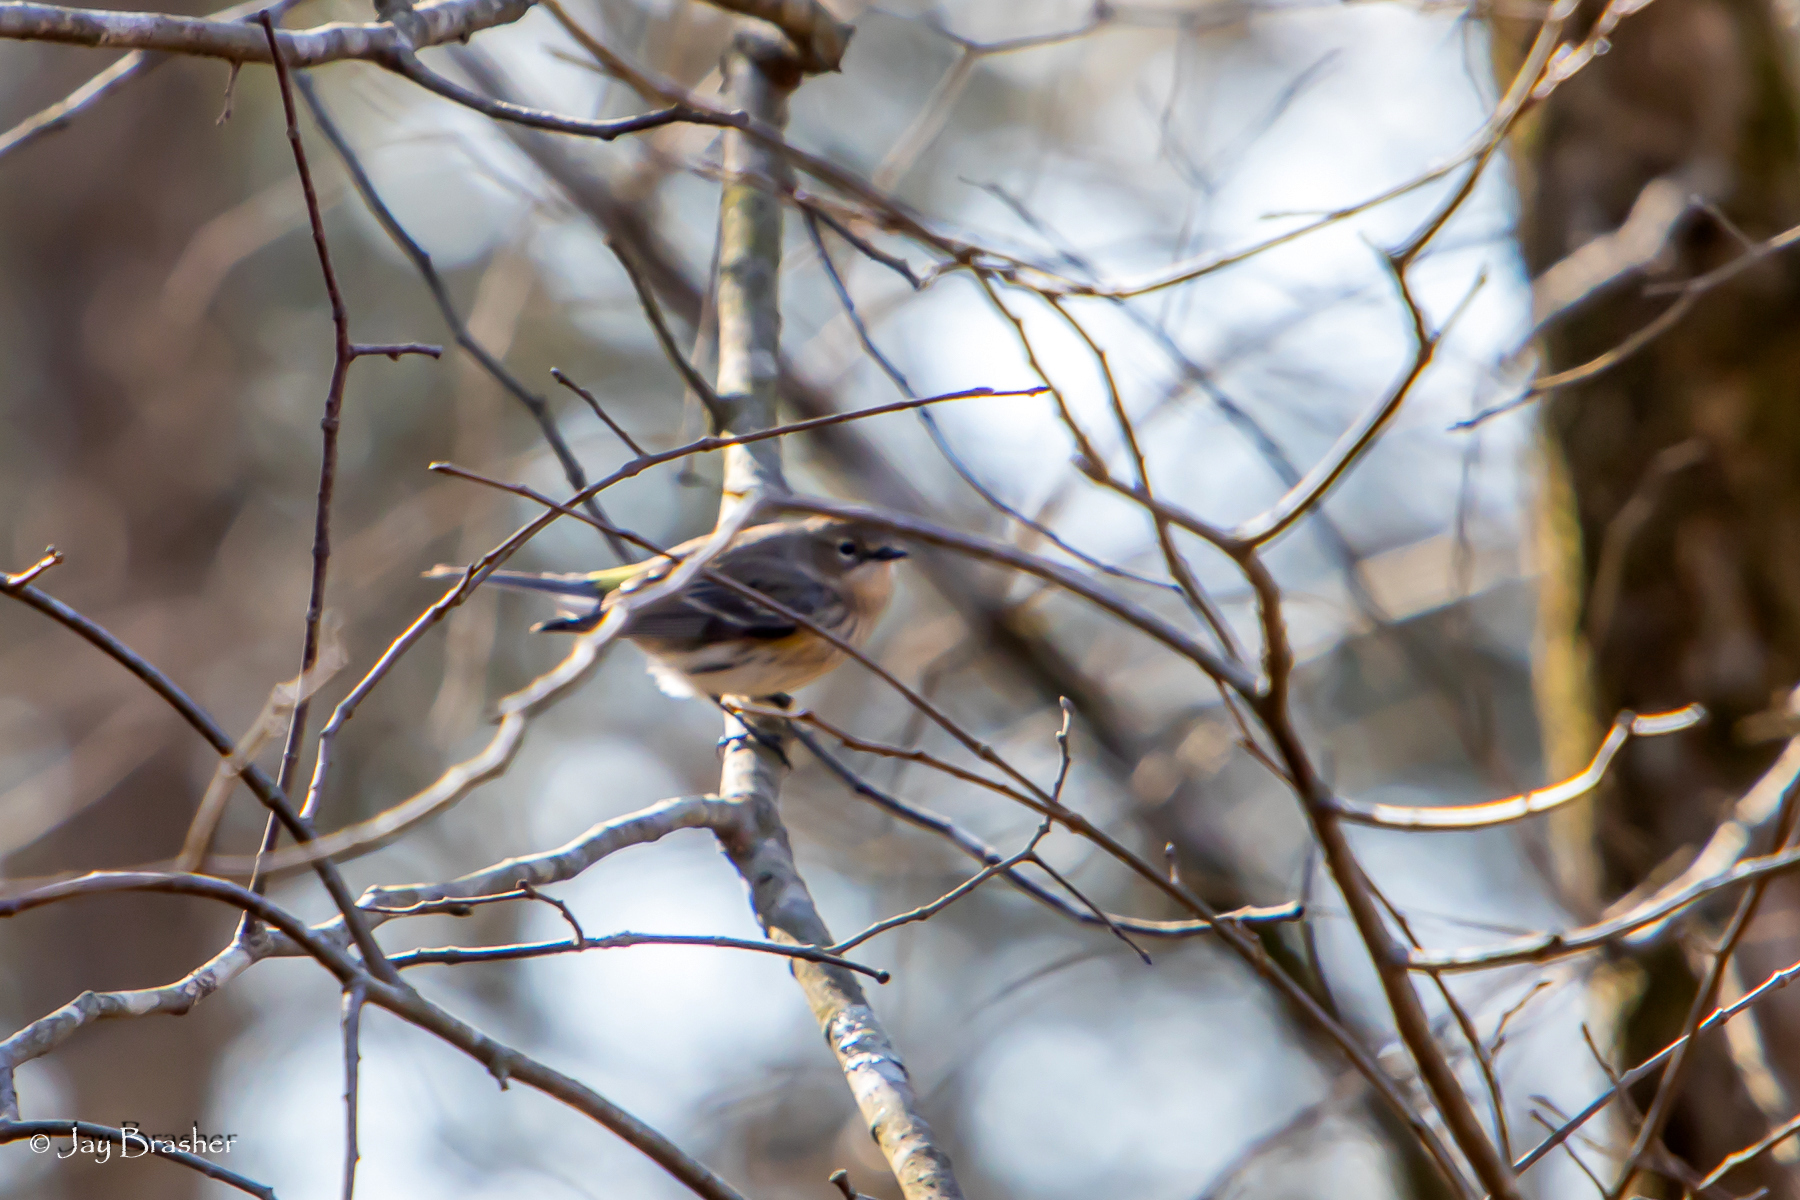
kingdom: Animalia
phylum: Chordata
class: Aves
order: Passeriformes
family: Parulidae
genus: Setophaga
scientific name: Setophaga coronata
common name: Myrtle warbler
